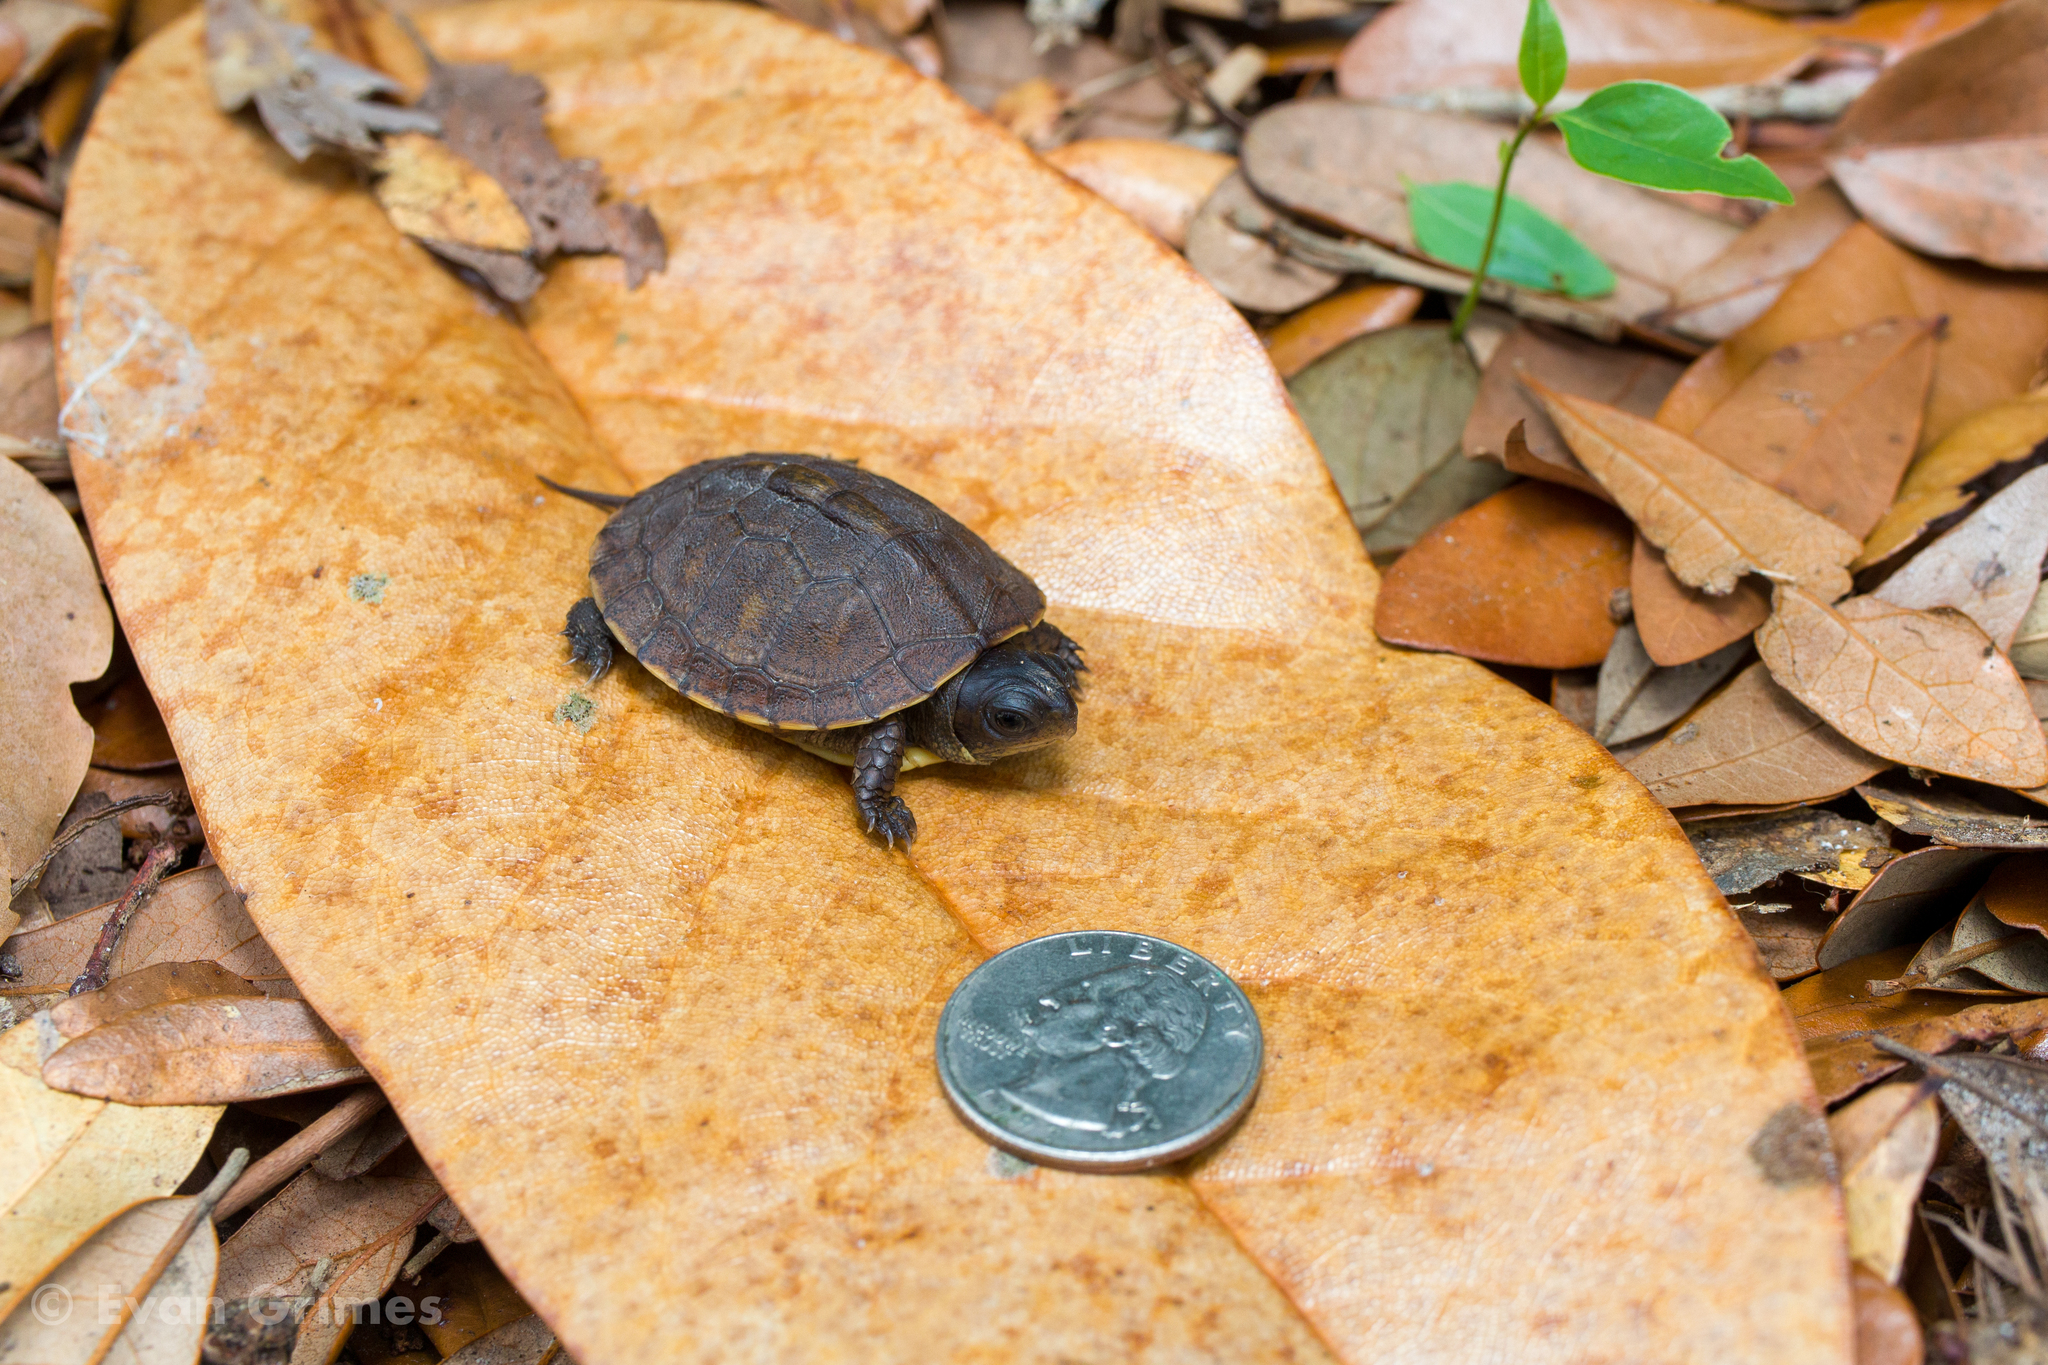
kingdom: Animalia
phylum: Chordata
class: Testudines
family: Emydidae
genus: Terrapene
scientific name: Terrapene carolina
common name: Common box turtle
